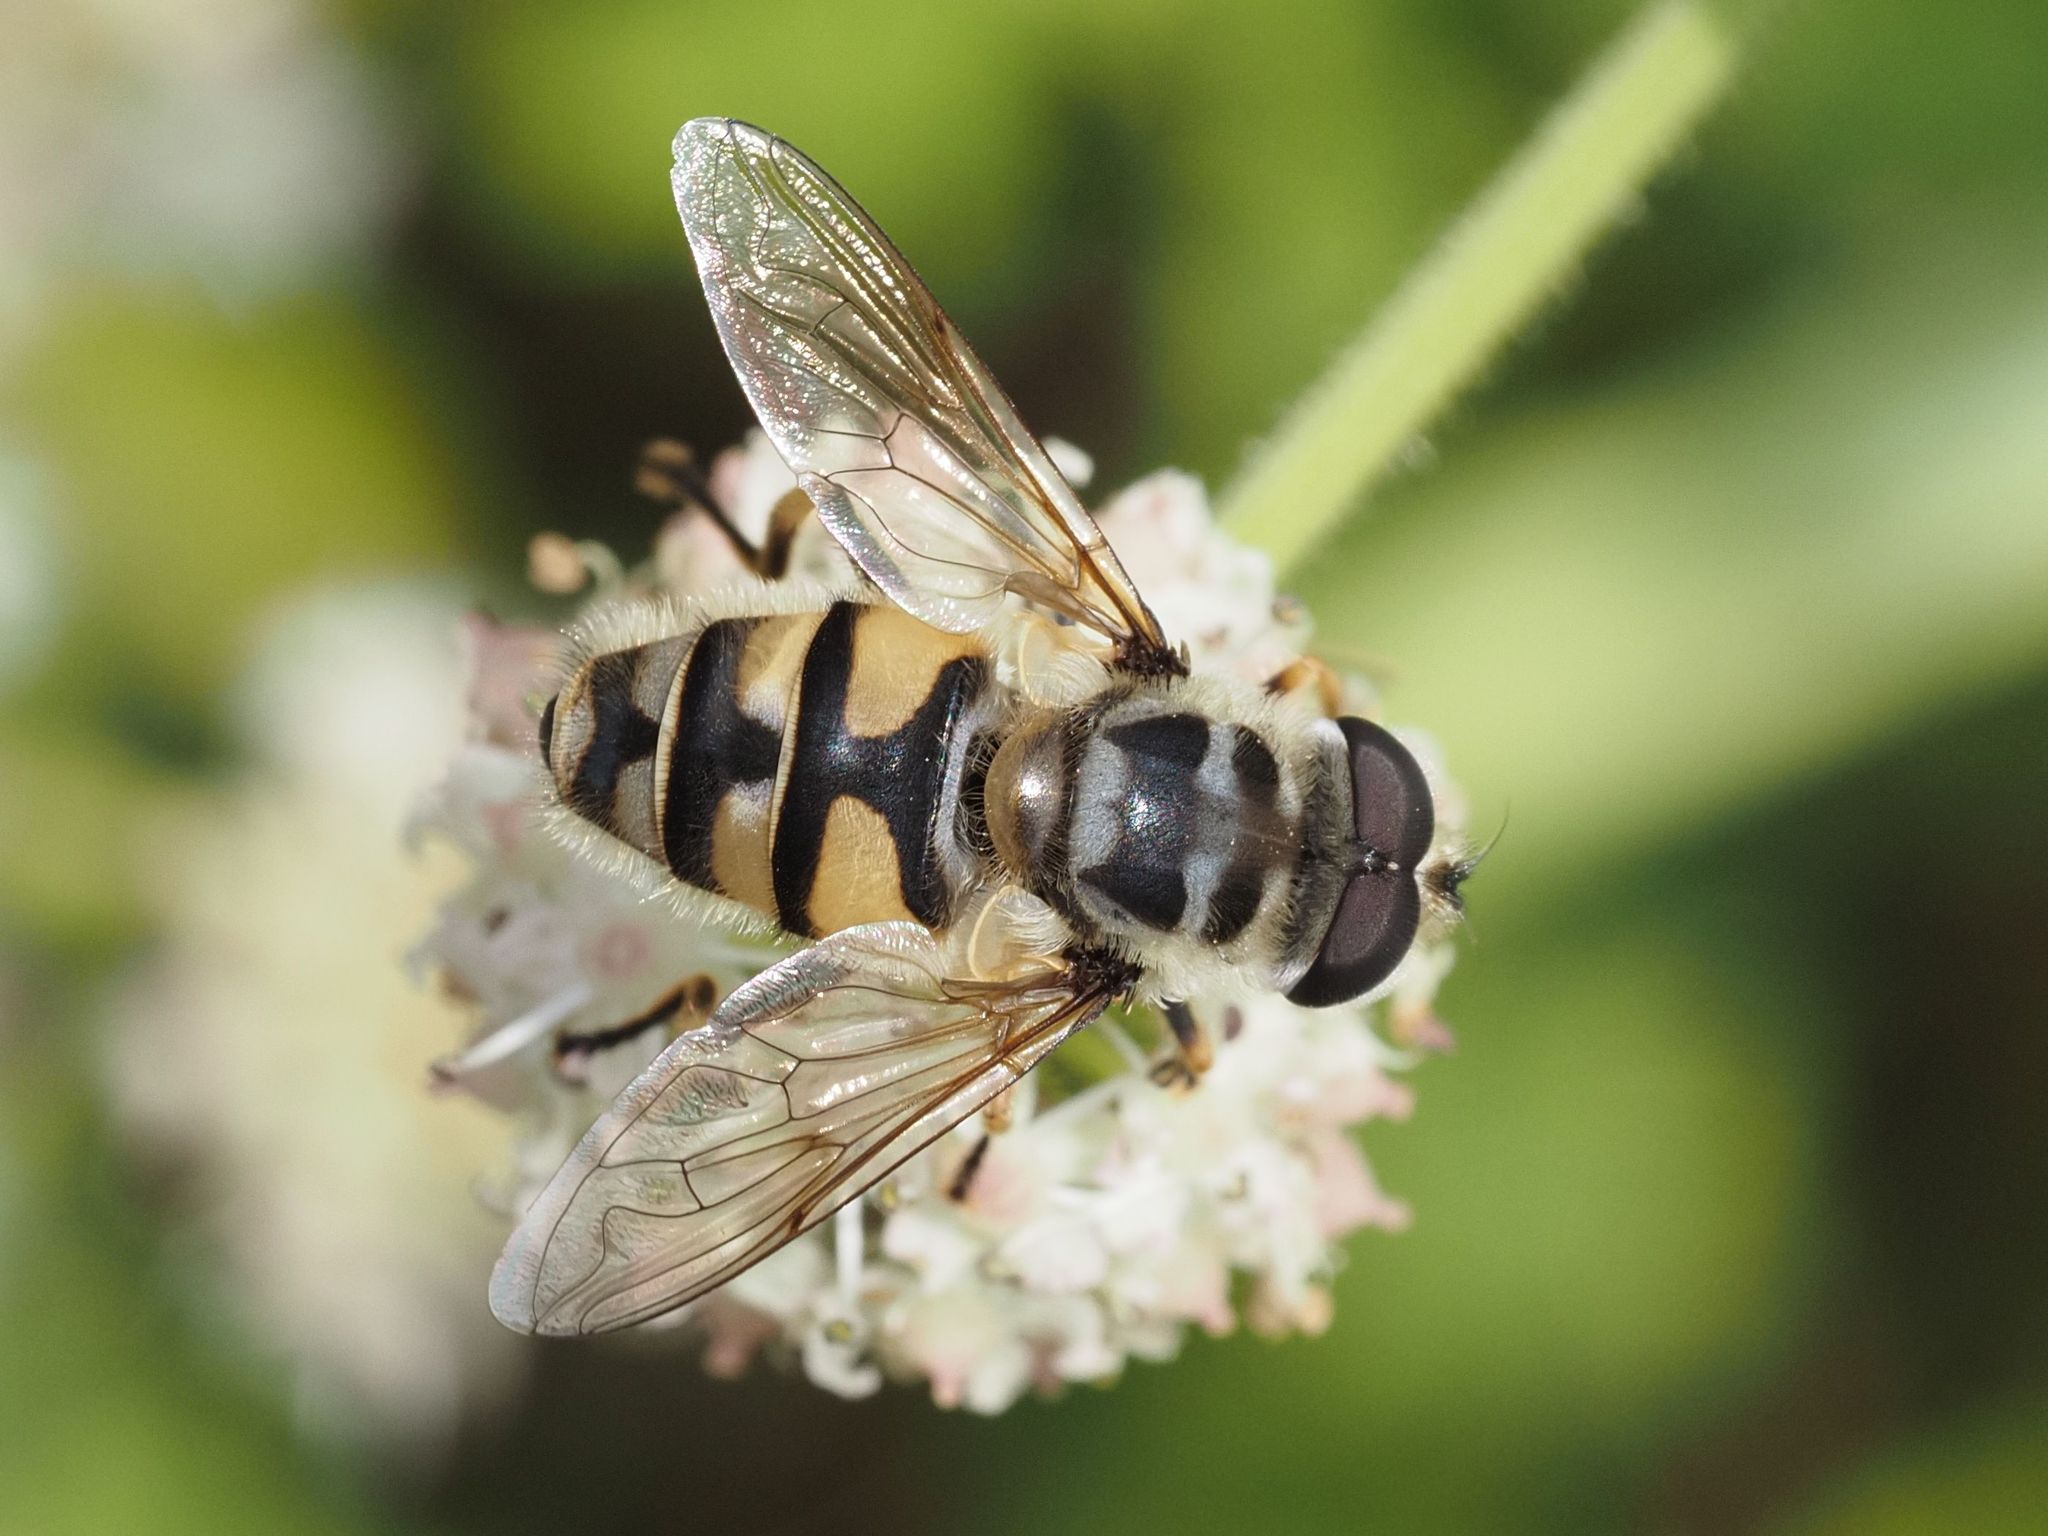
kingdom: Animalia
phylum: Arthropoda
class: Insecta
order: Diptera
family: Syrphidae
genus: Myathropa
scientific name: Myathropa florea
